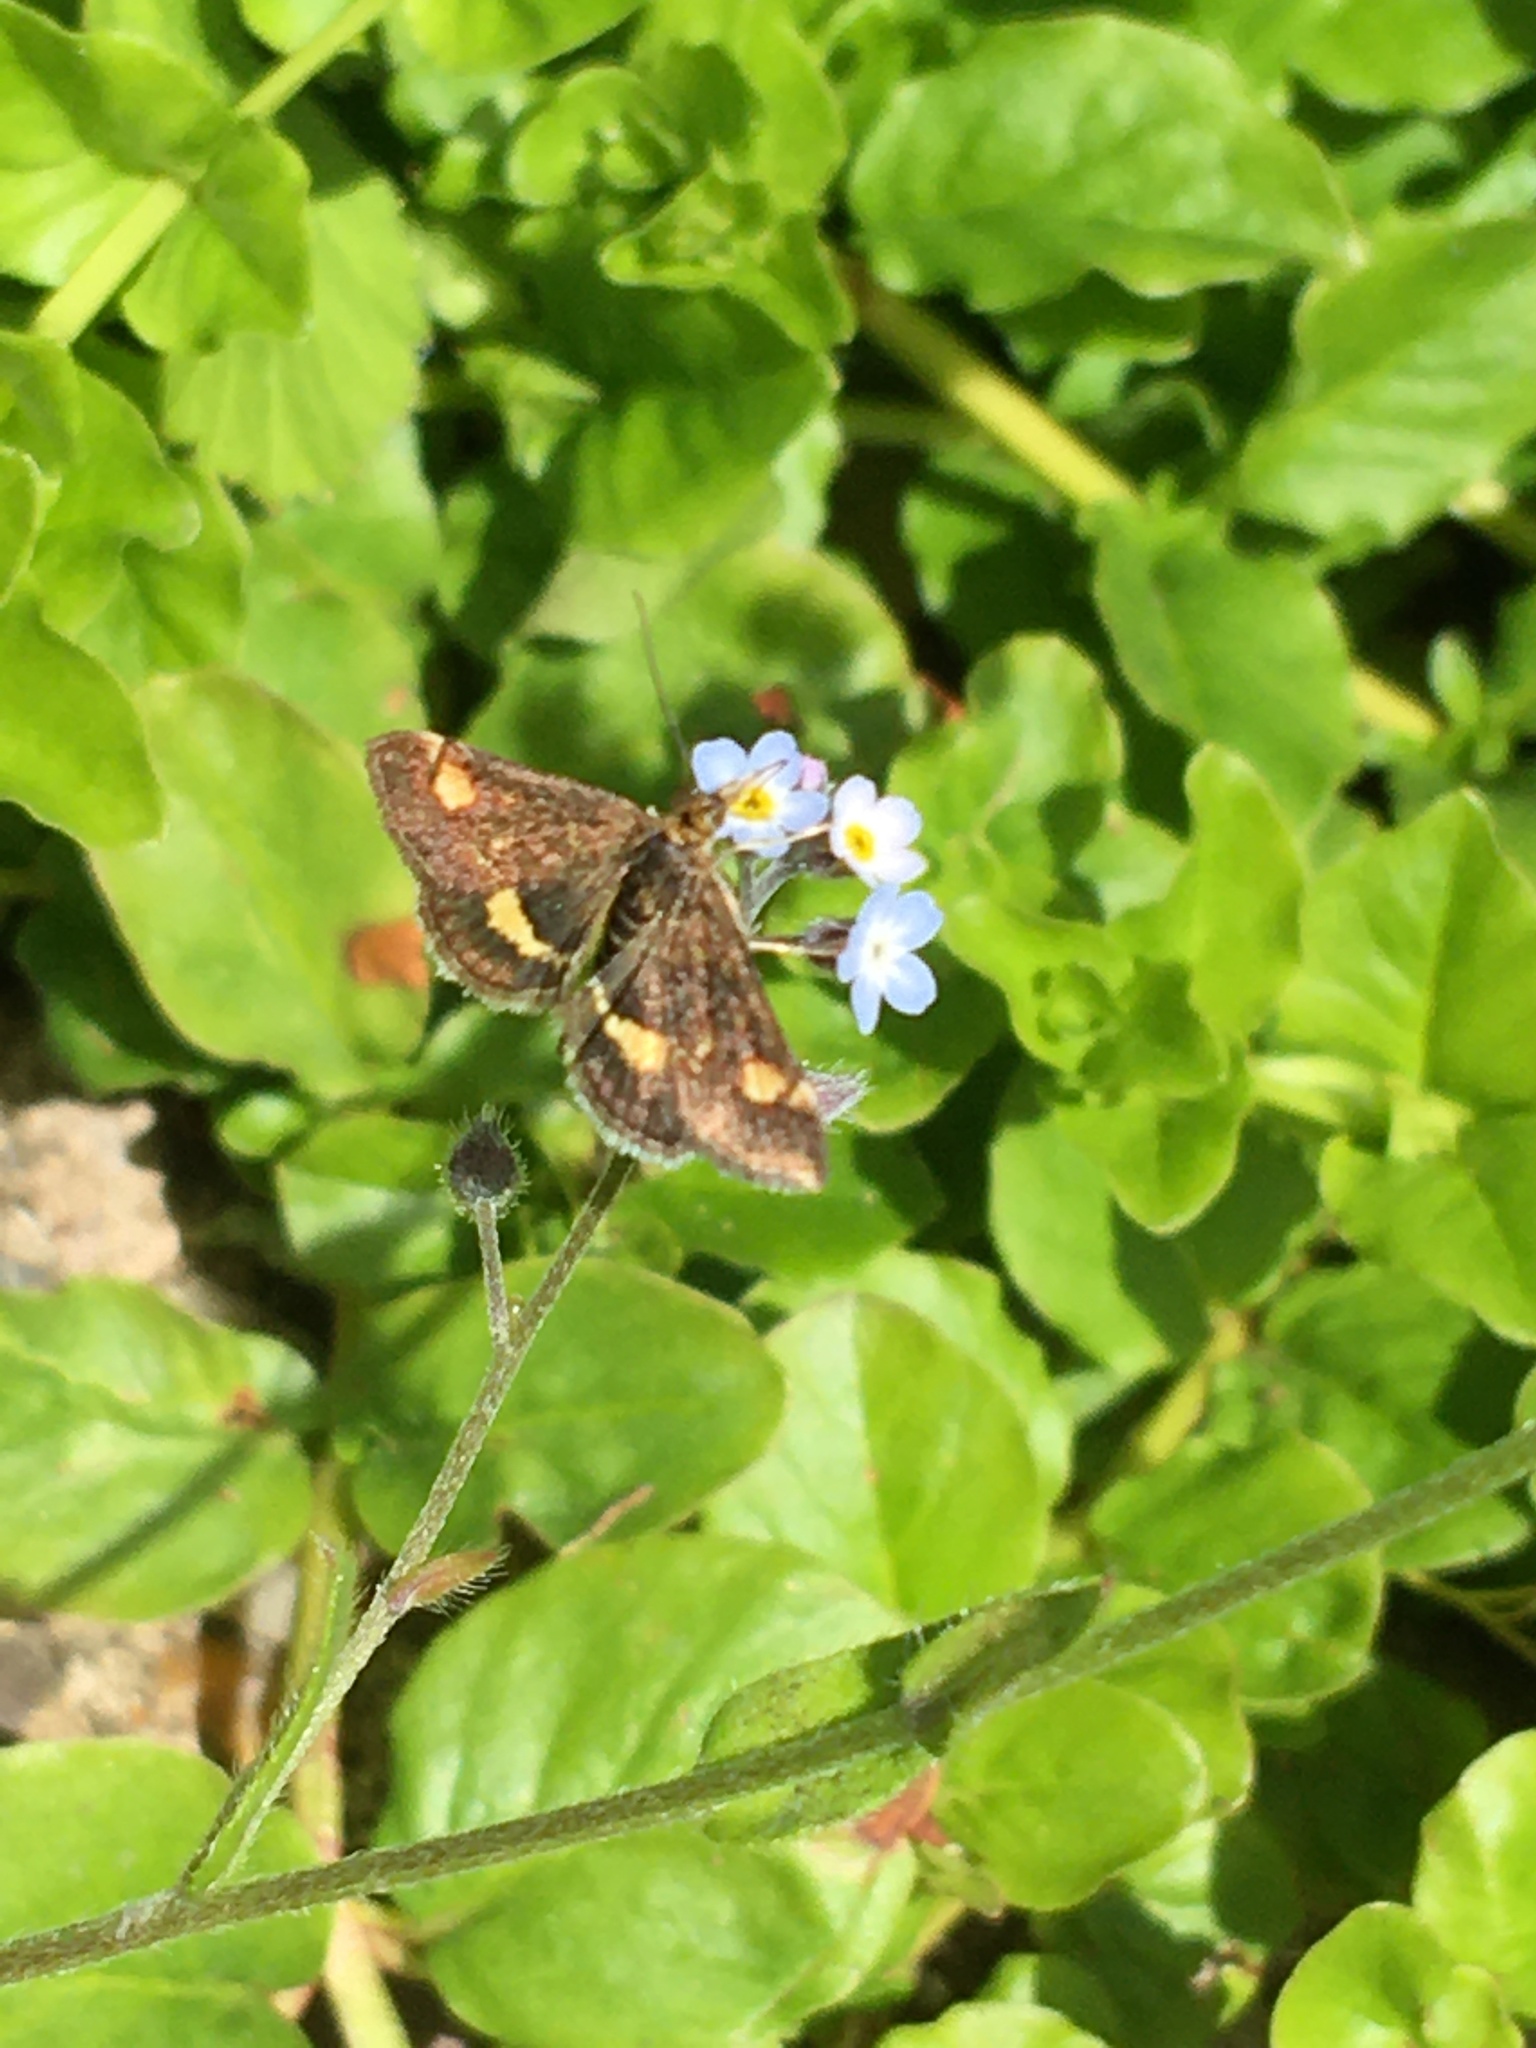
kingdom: Animalia
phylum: Arthropoda
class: Insecta
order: Lepidoptera
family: Crambidae
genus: Pyrausta
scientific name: Pyrausta aurata
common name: Small purple & gold
